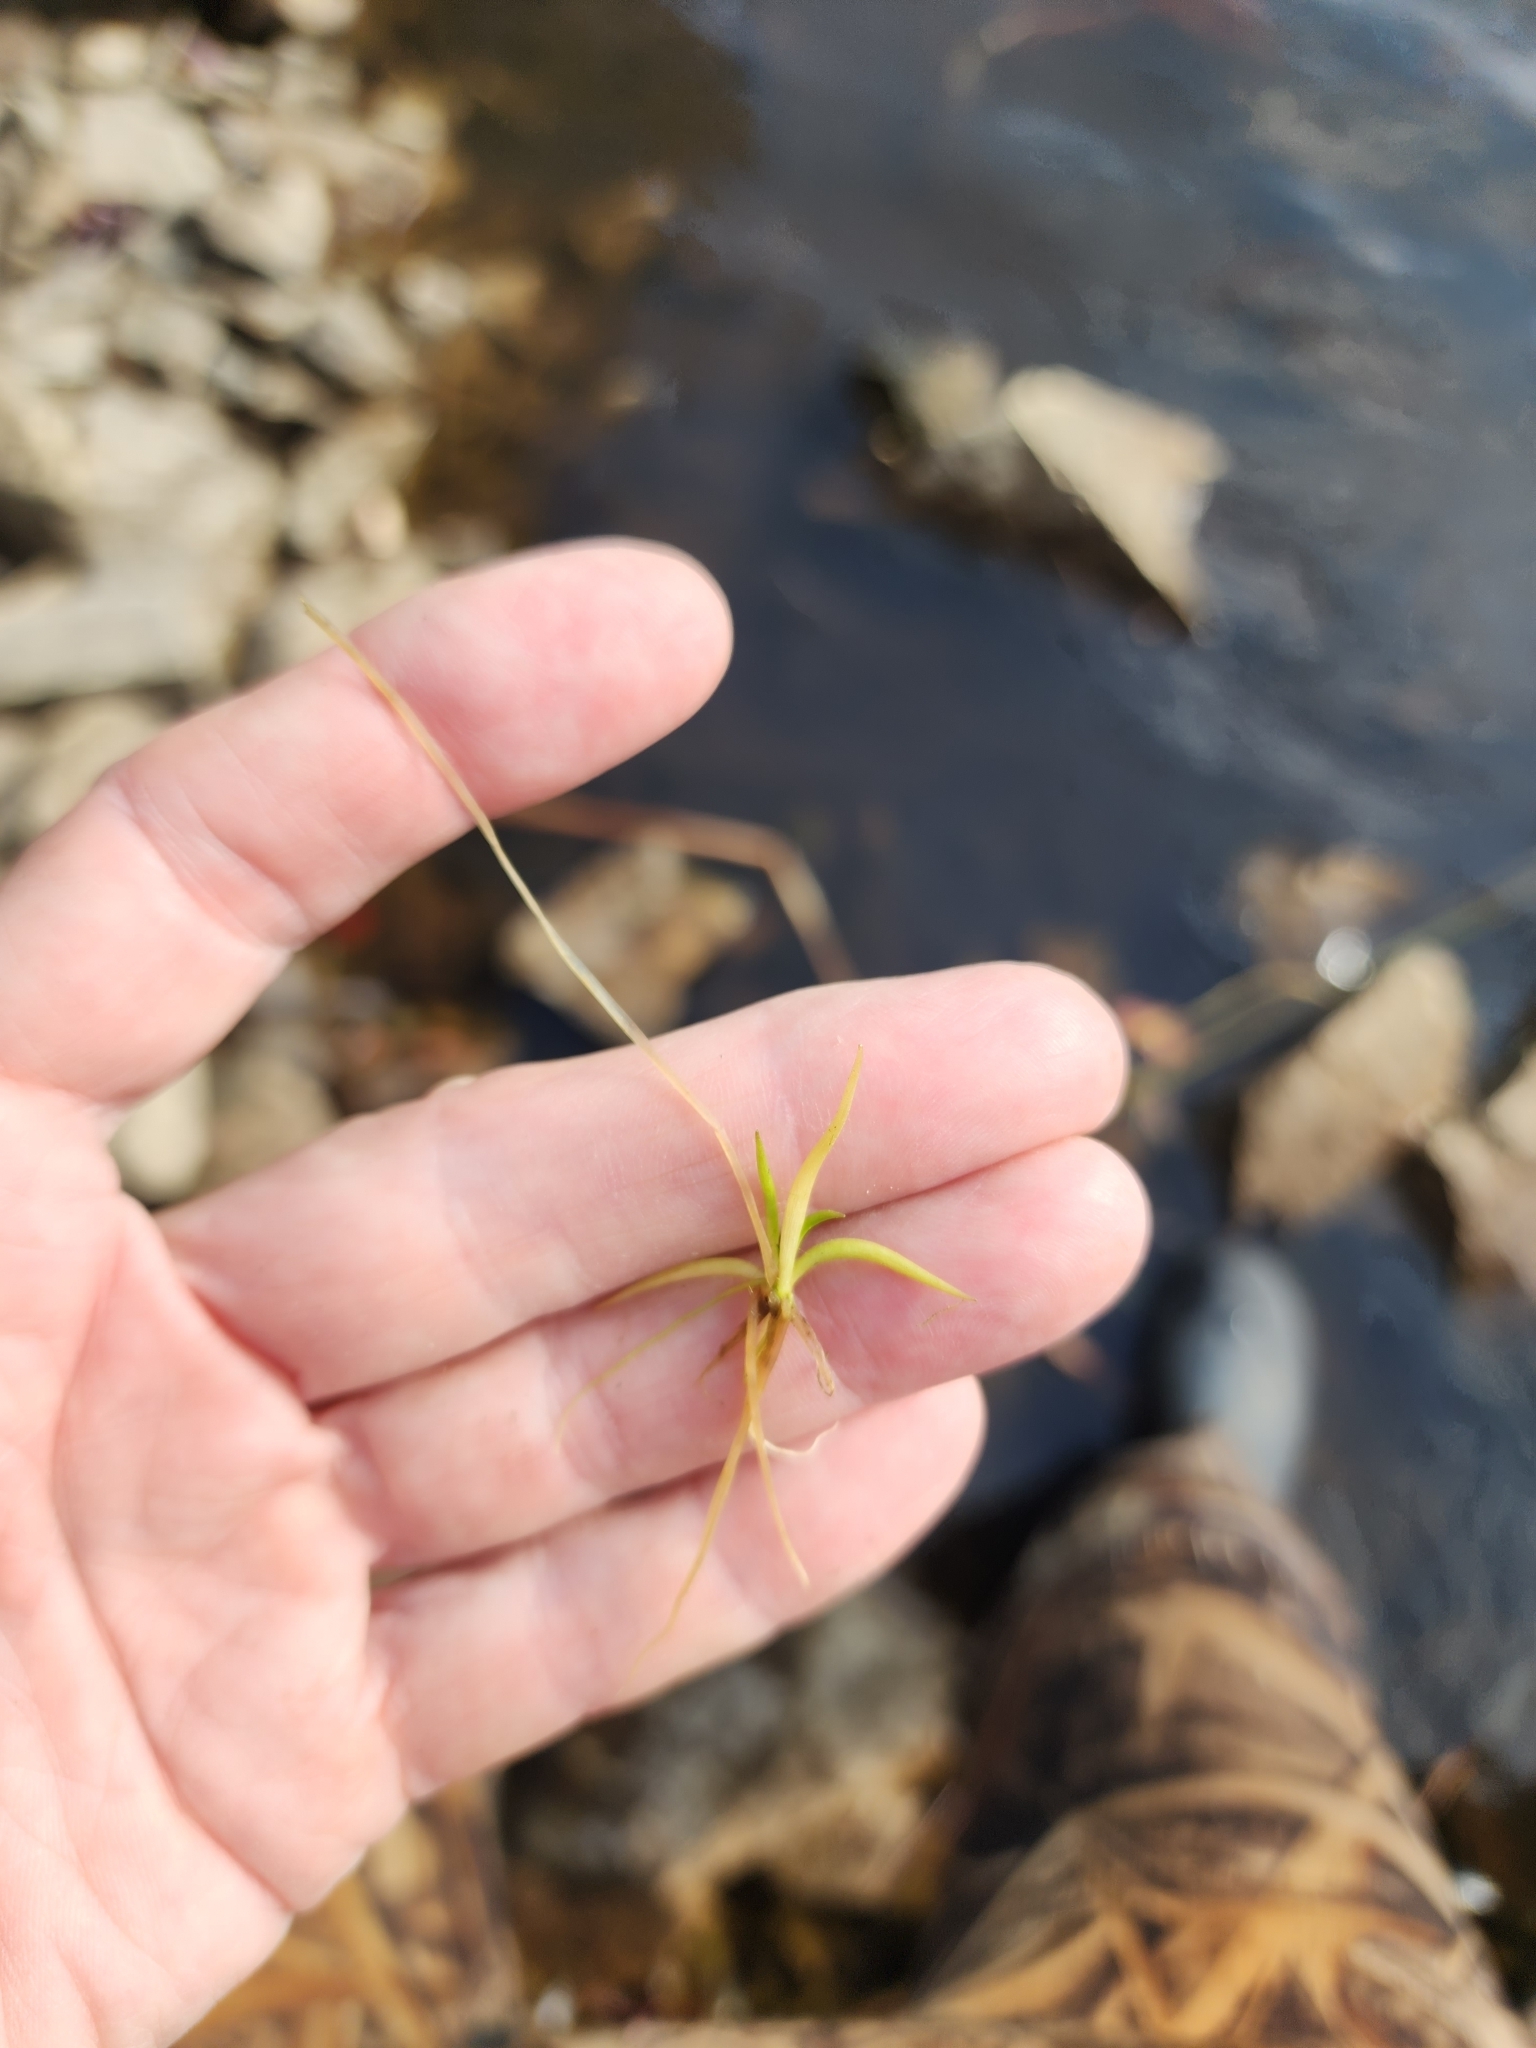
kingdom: Plantae
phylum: Tracheophyta
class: Magnoliopsida
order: Lamiales
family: Plantaginaceae
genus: Littorella
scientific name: Littorella americana
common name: American littorella
